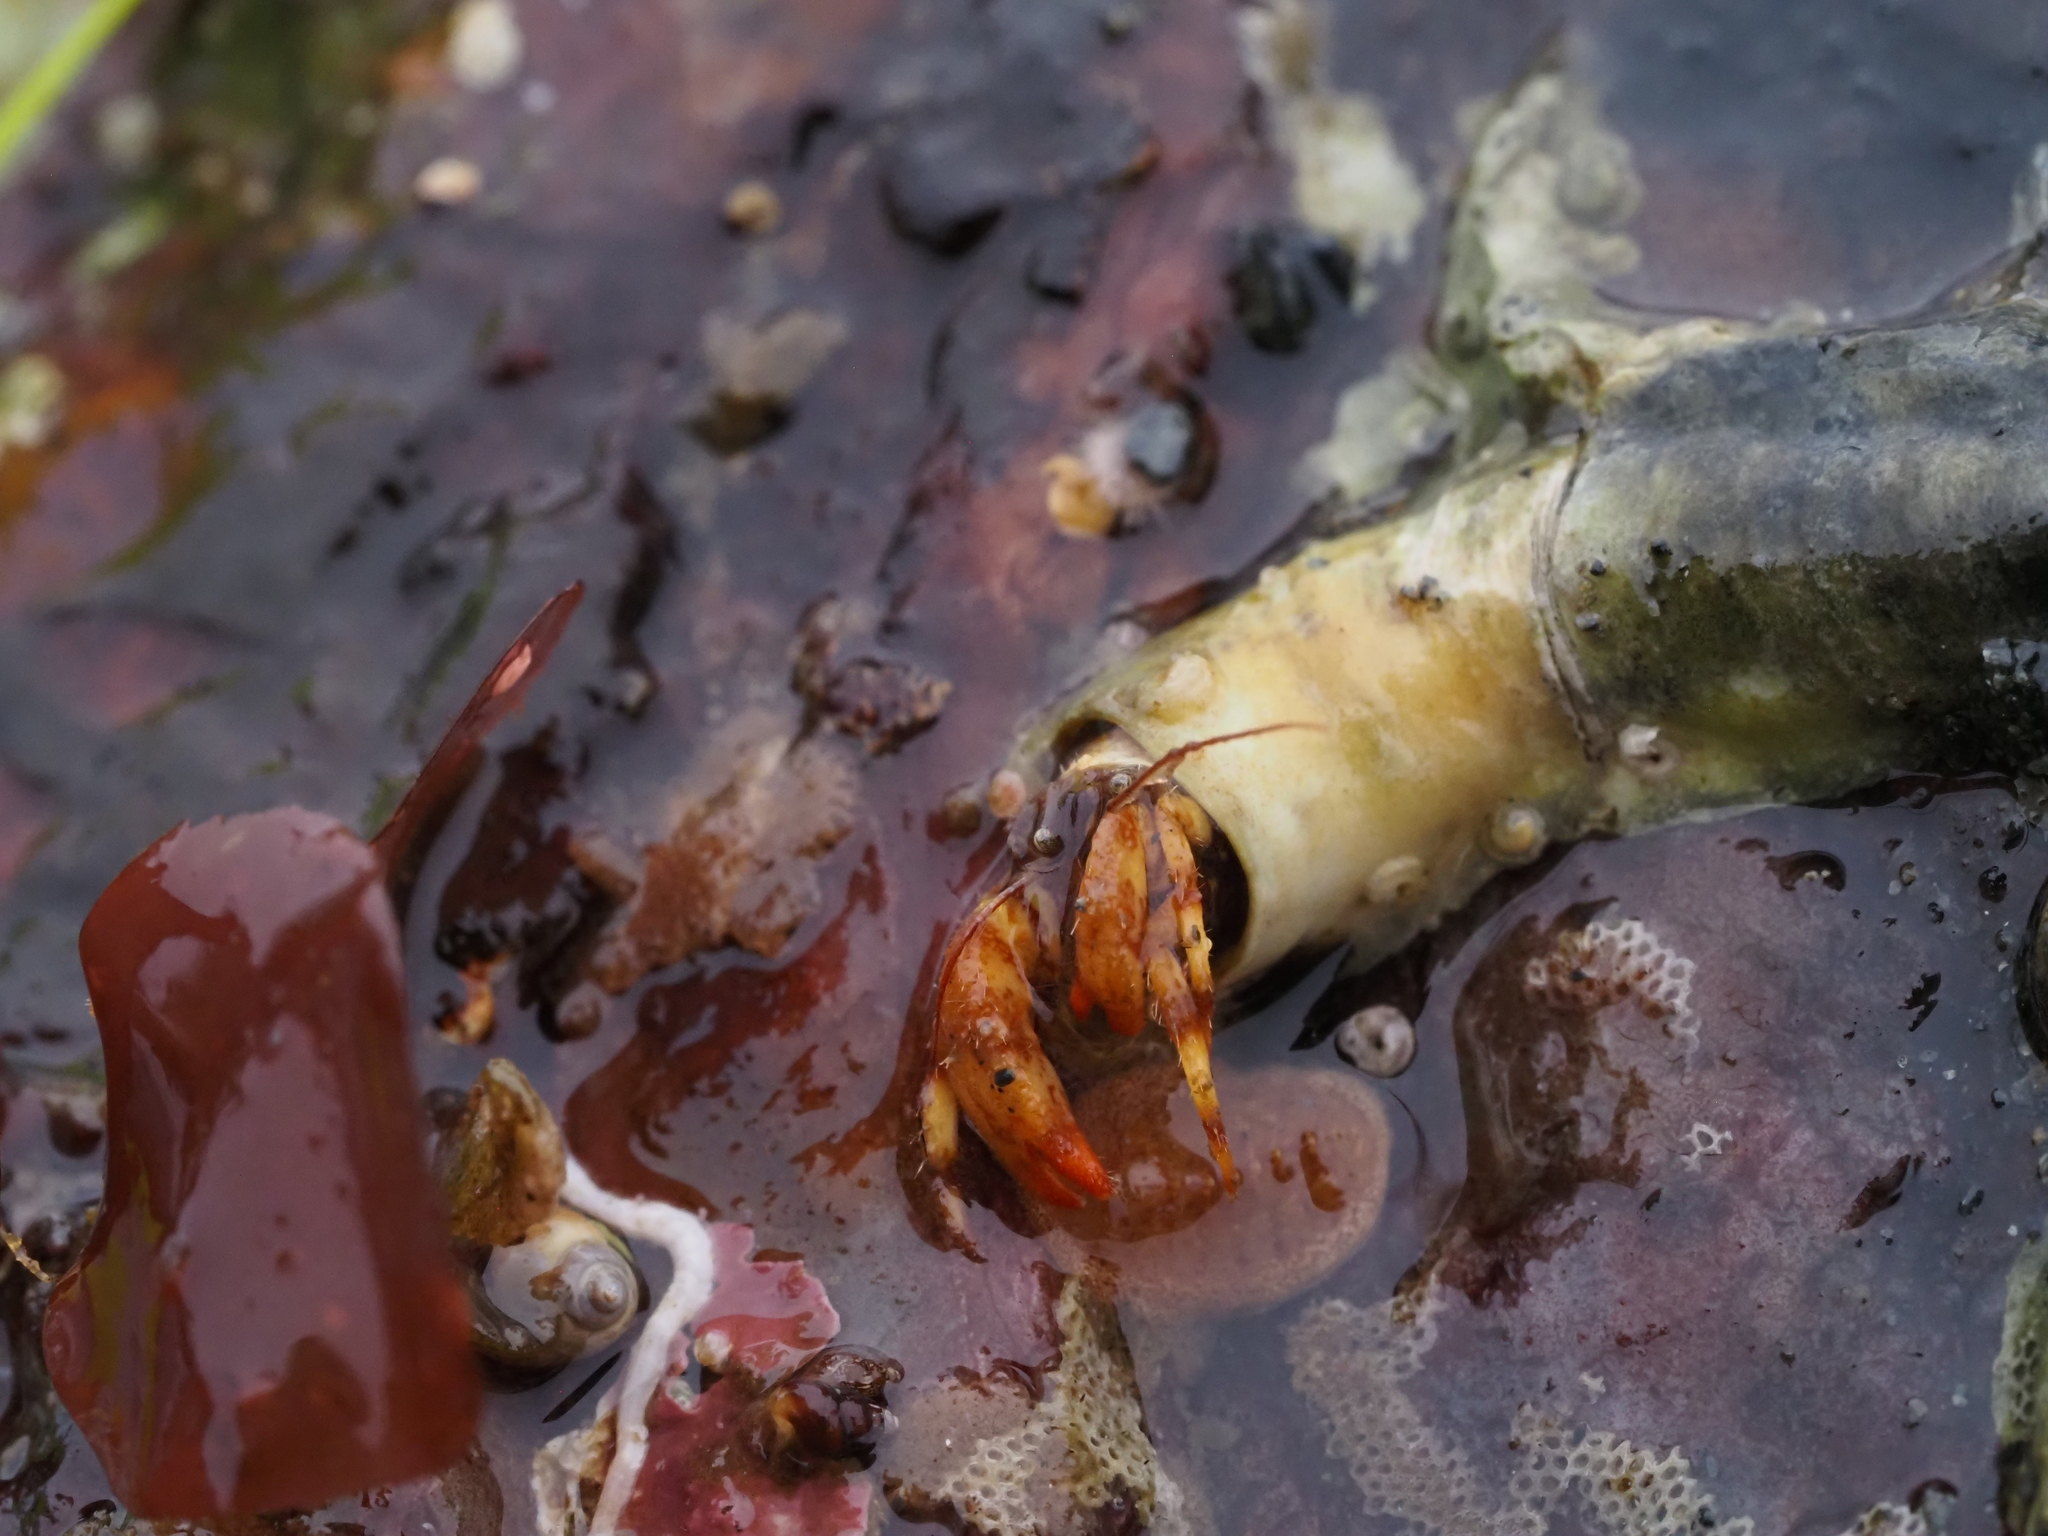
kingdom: Animalia
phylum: Arthropoda
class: Malacostraca
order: Decapoda
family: Paguridae
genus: Discorsopagurus
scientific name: Discorsopagurus schmitti
